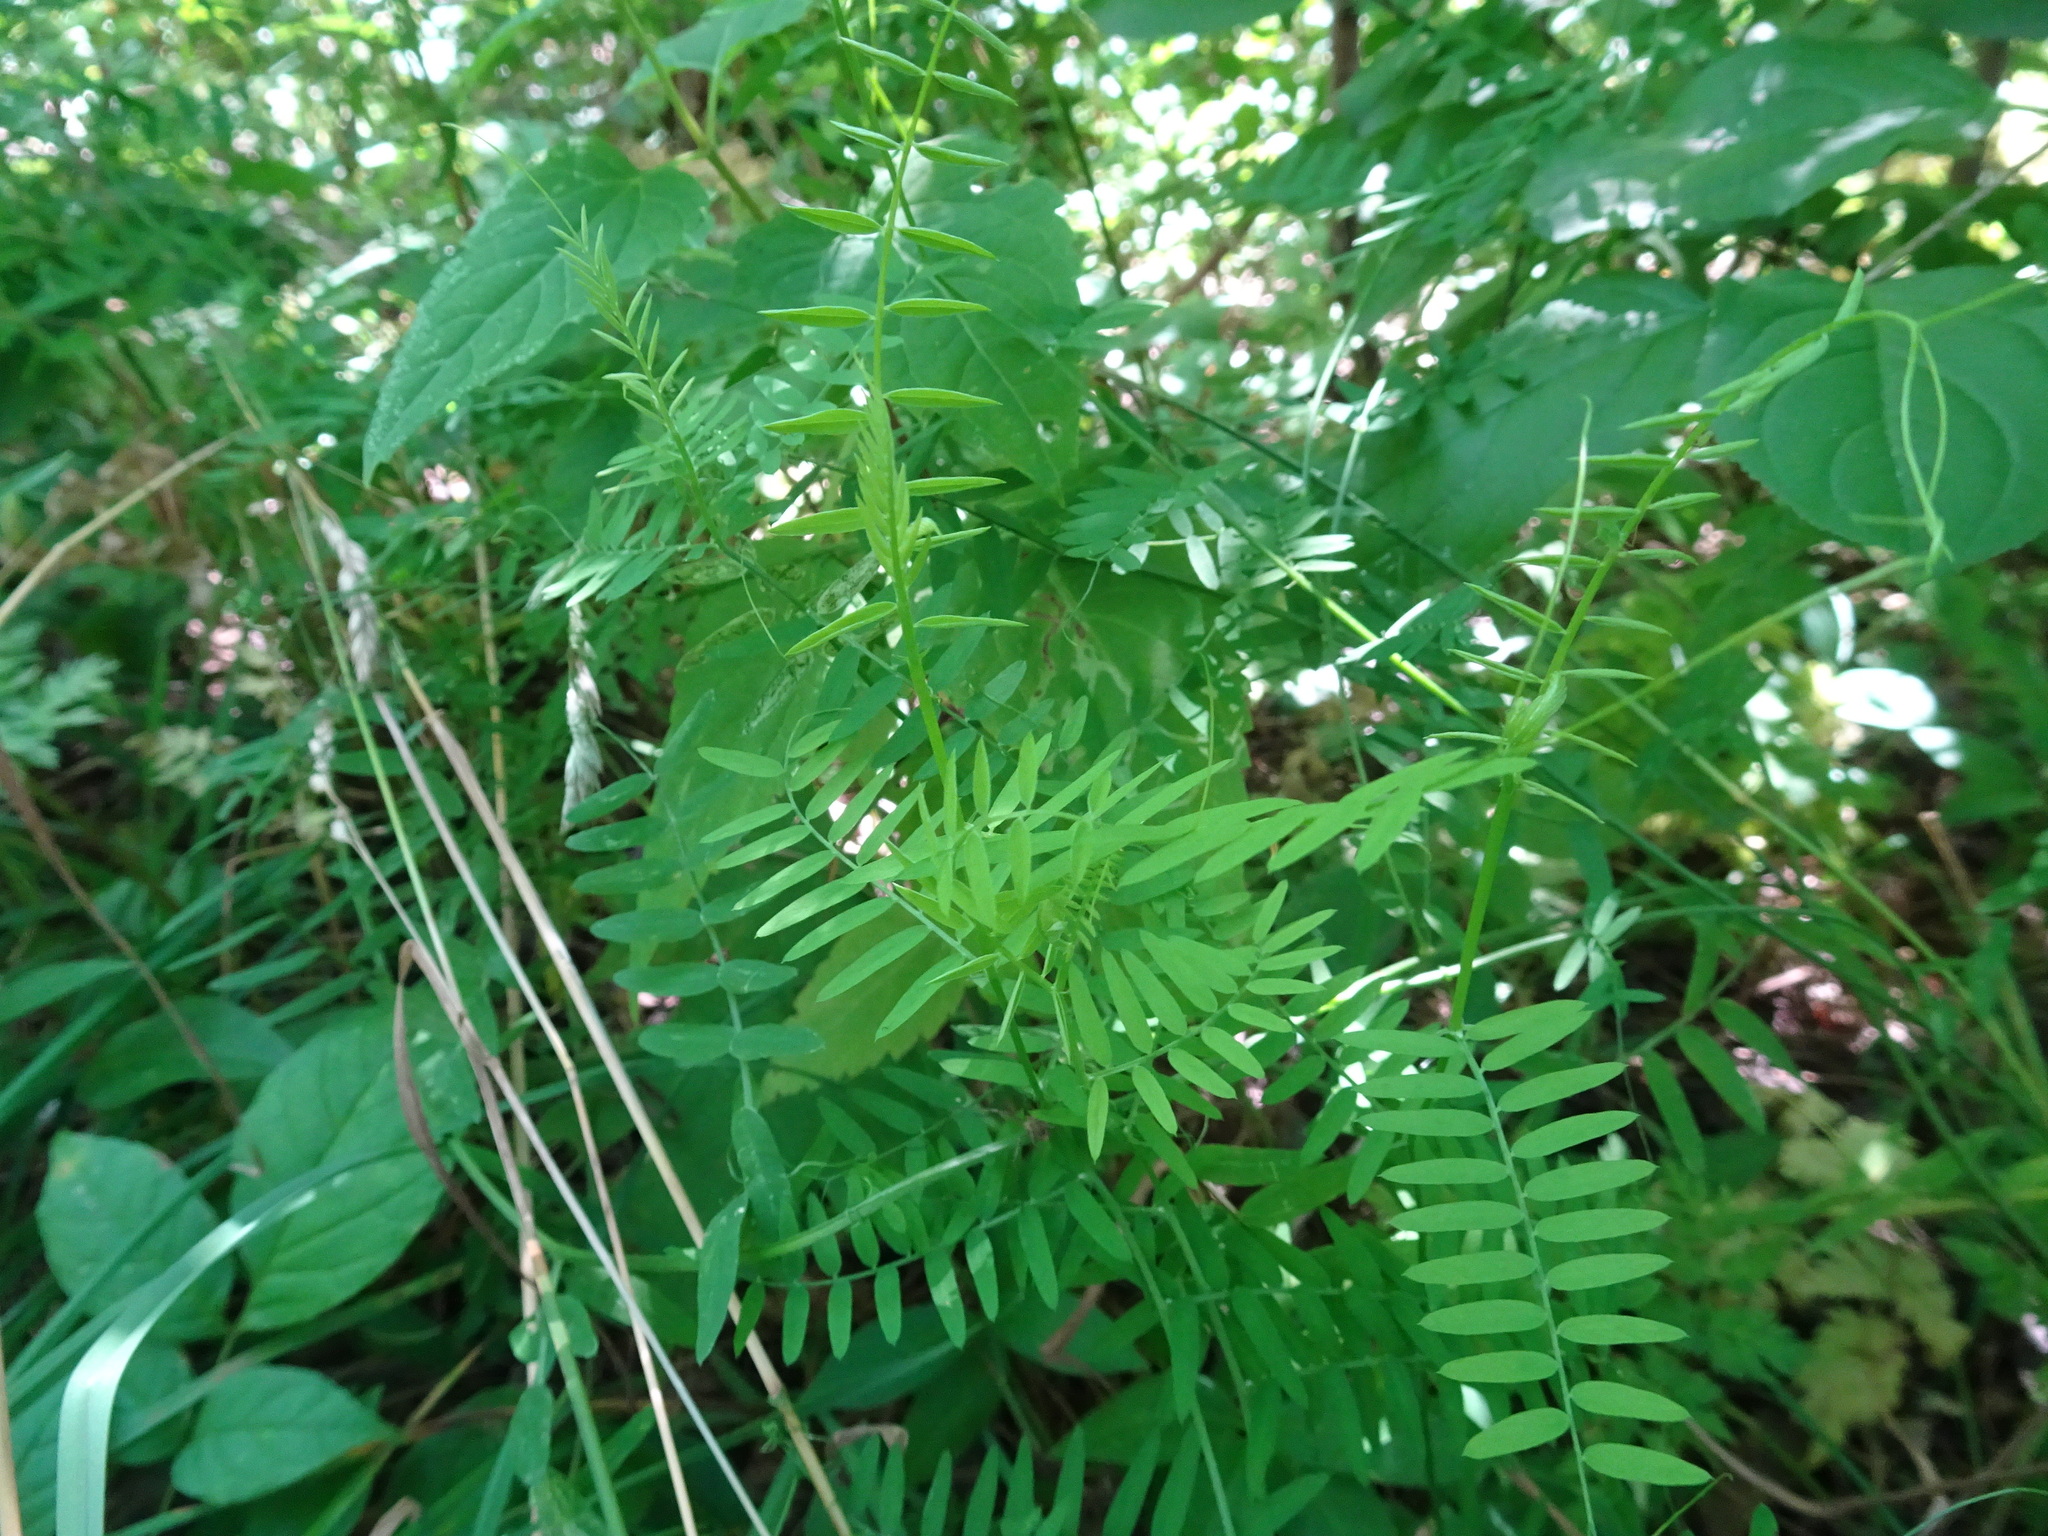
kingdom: Plantae
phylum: Tracheophyta
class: Magnoliopsida
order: Fabales
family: Fabaceae
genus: Vicia
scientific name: Vicia cracca
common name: Bird vetch
